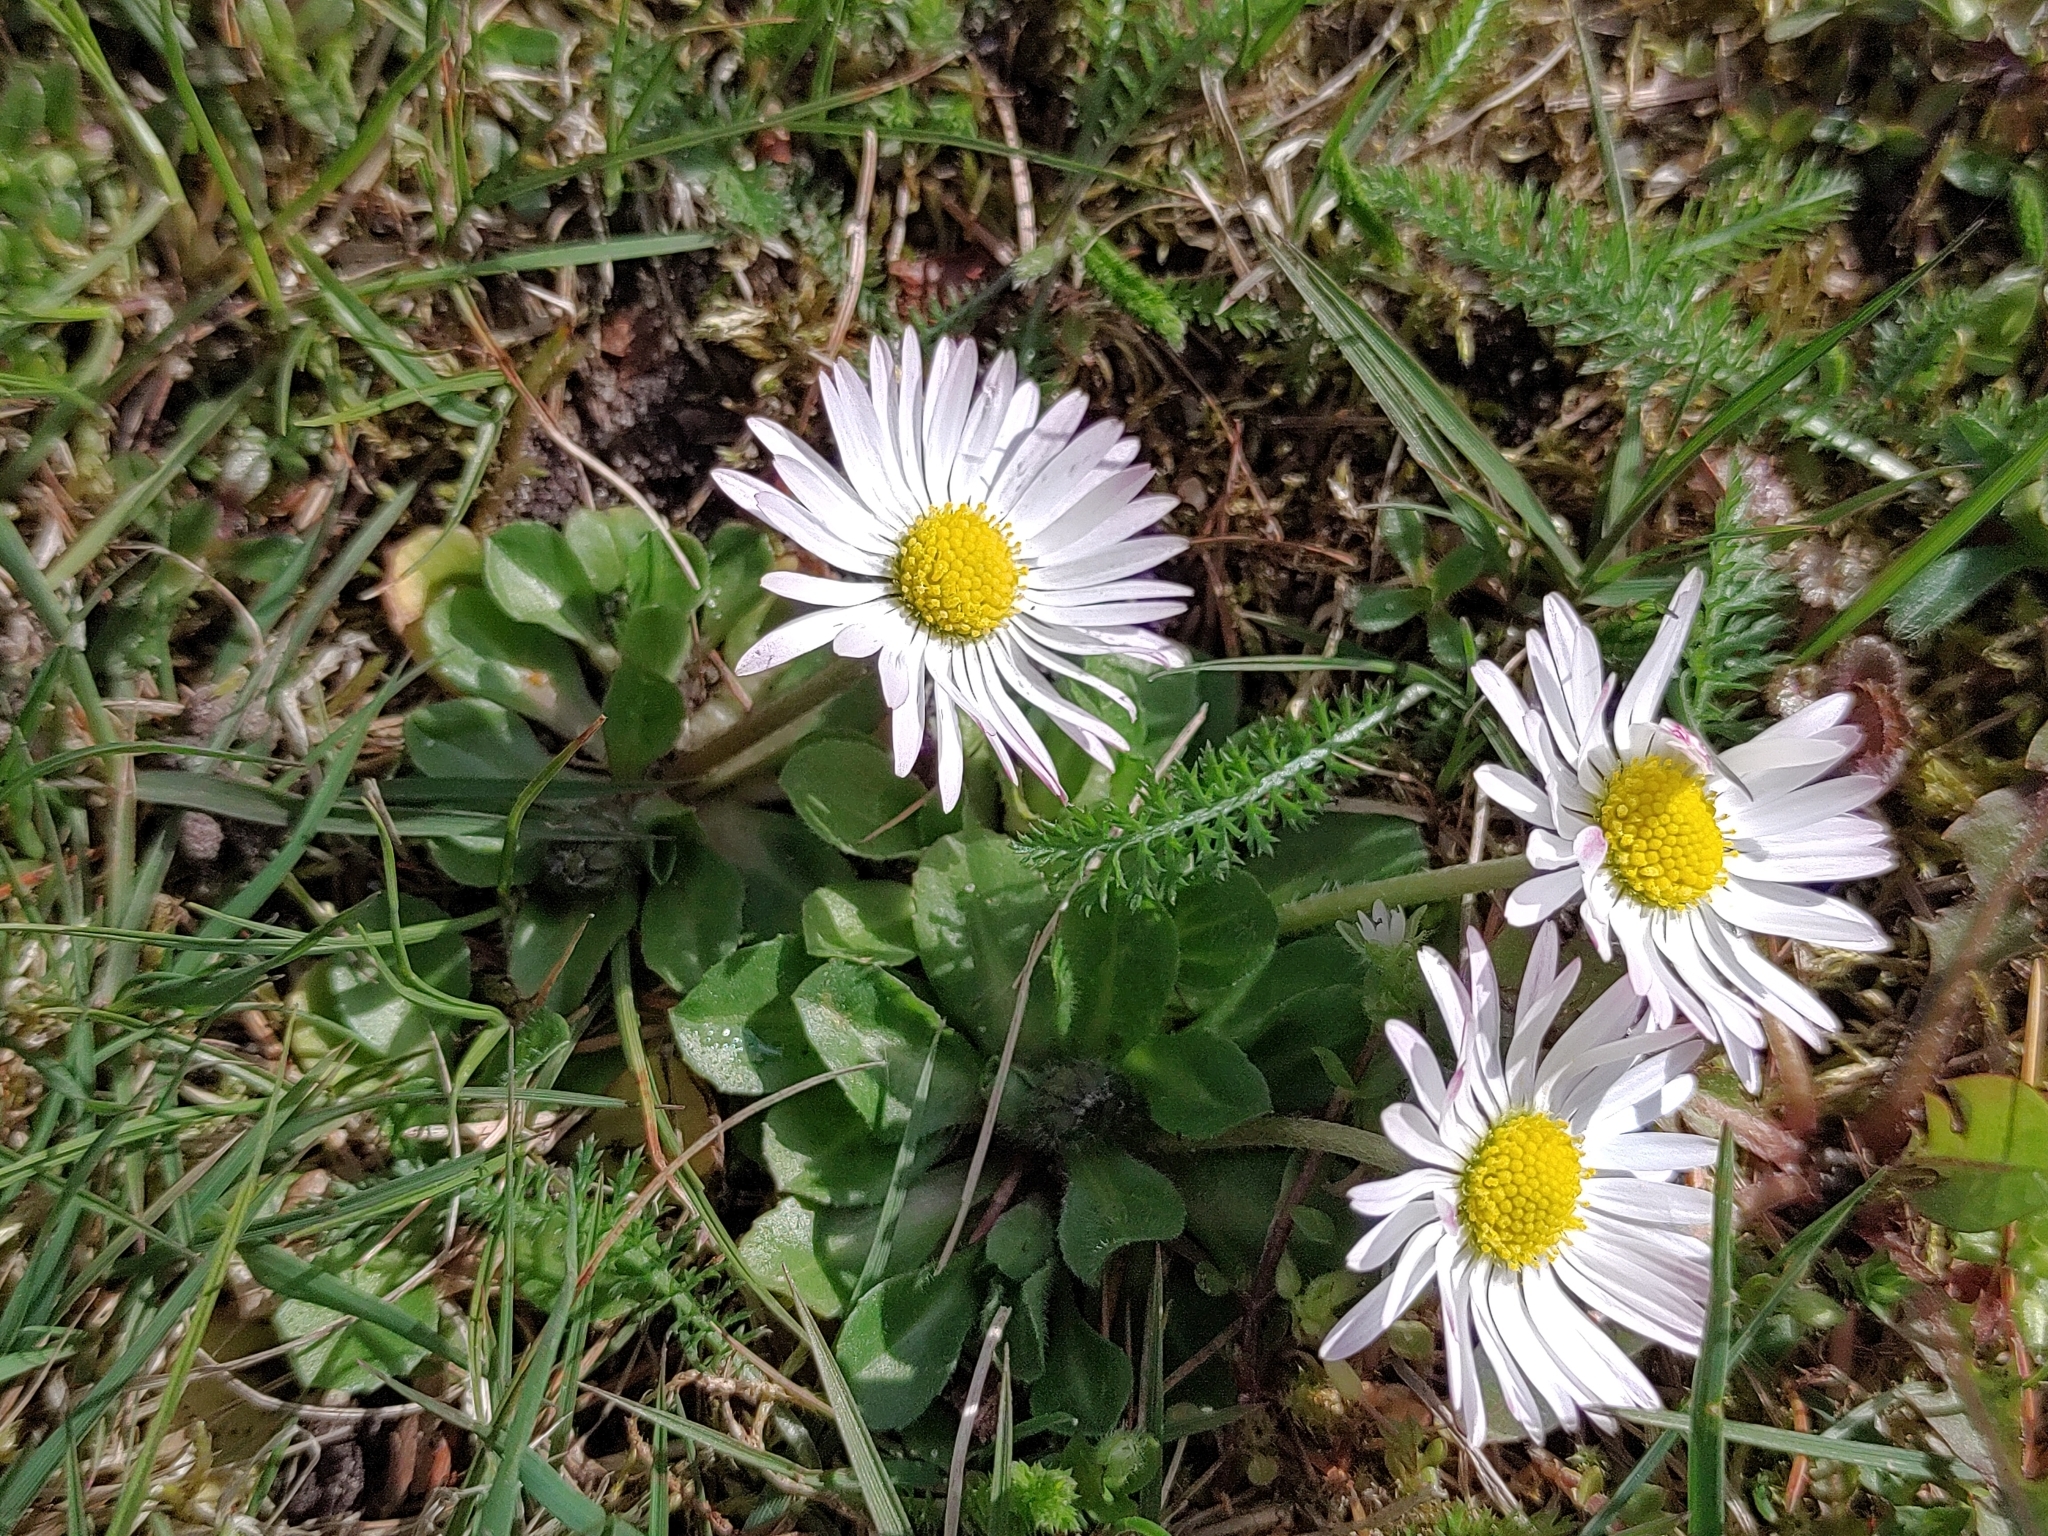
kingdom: Plantae
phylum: Tracheophyta
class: Magnoliopsida
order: Asterales
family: Asteraceae
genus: Bellis
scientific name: Bellis perennis
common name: Lawndaisy
